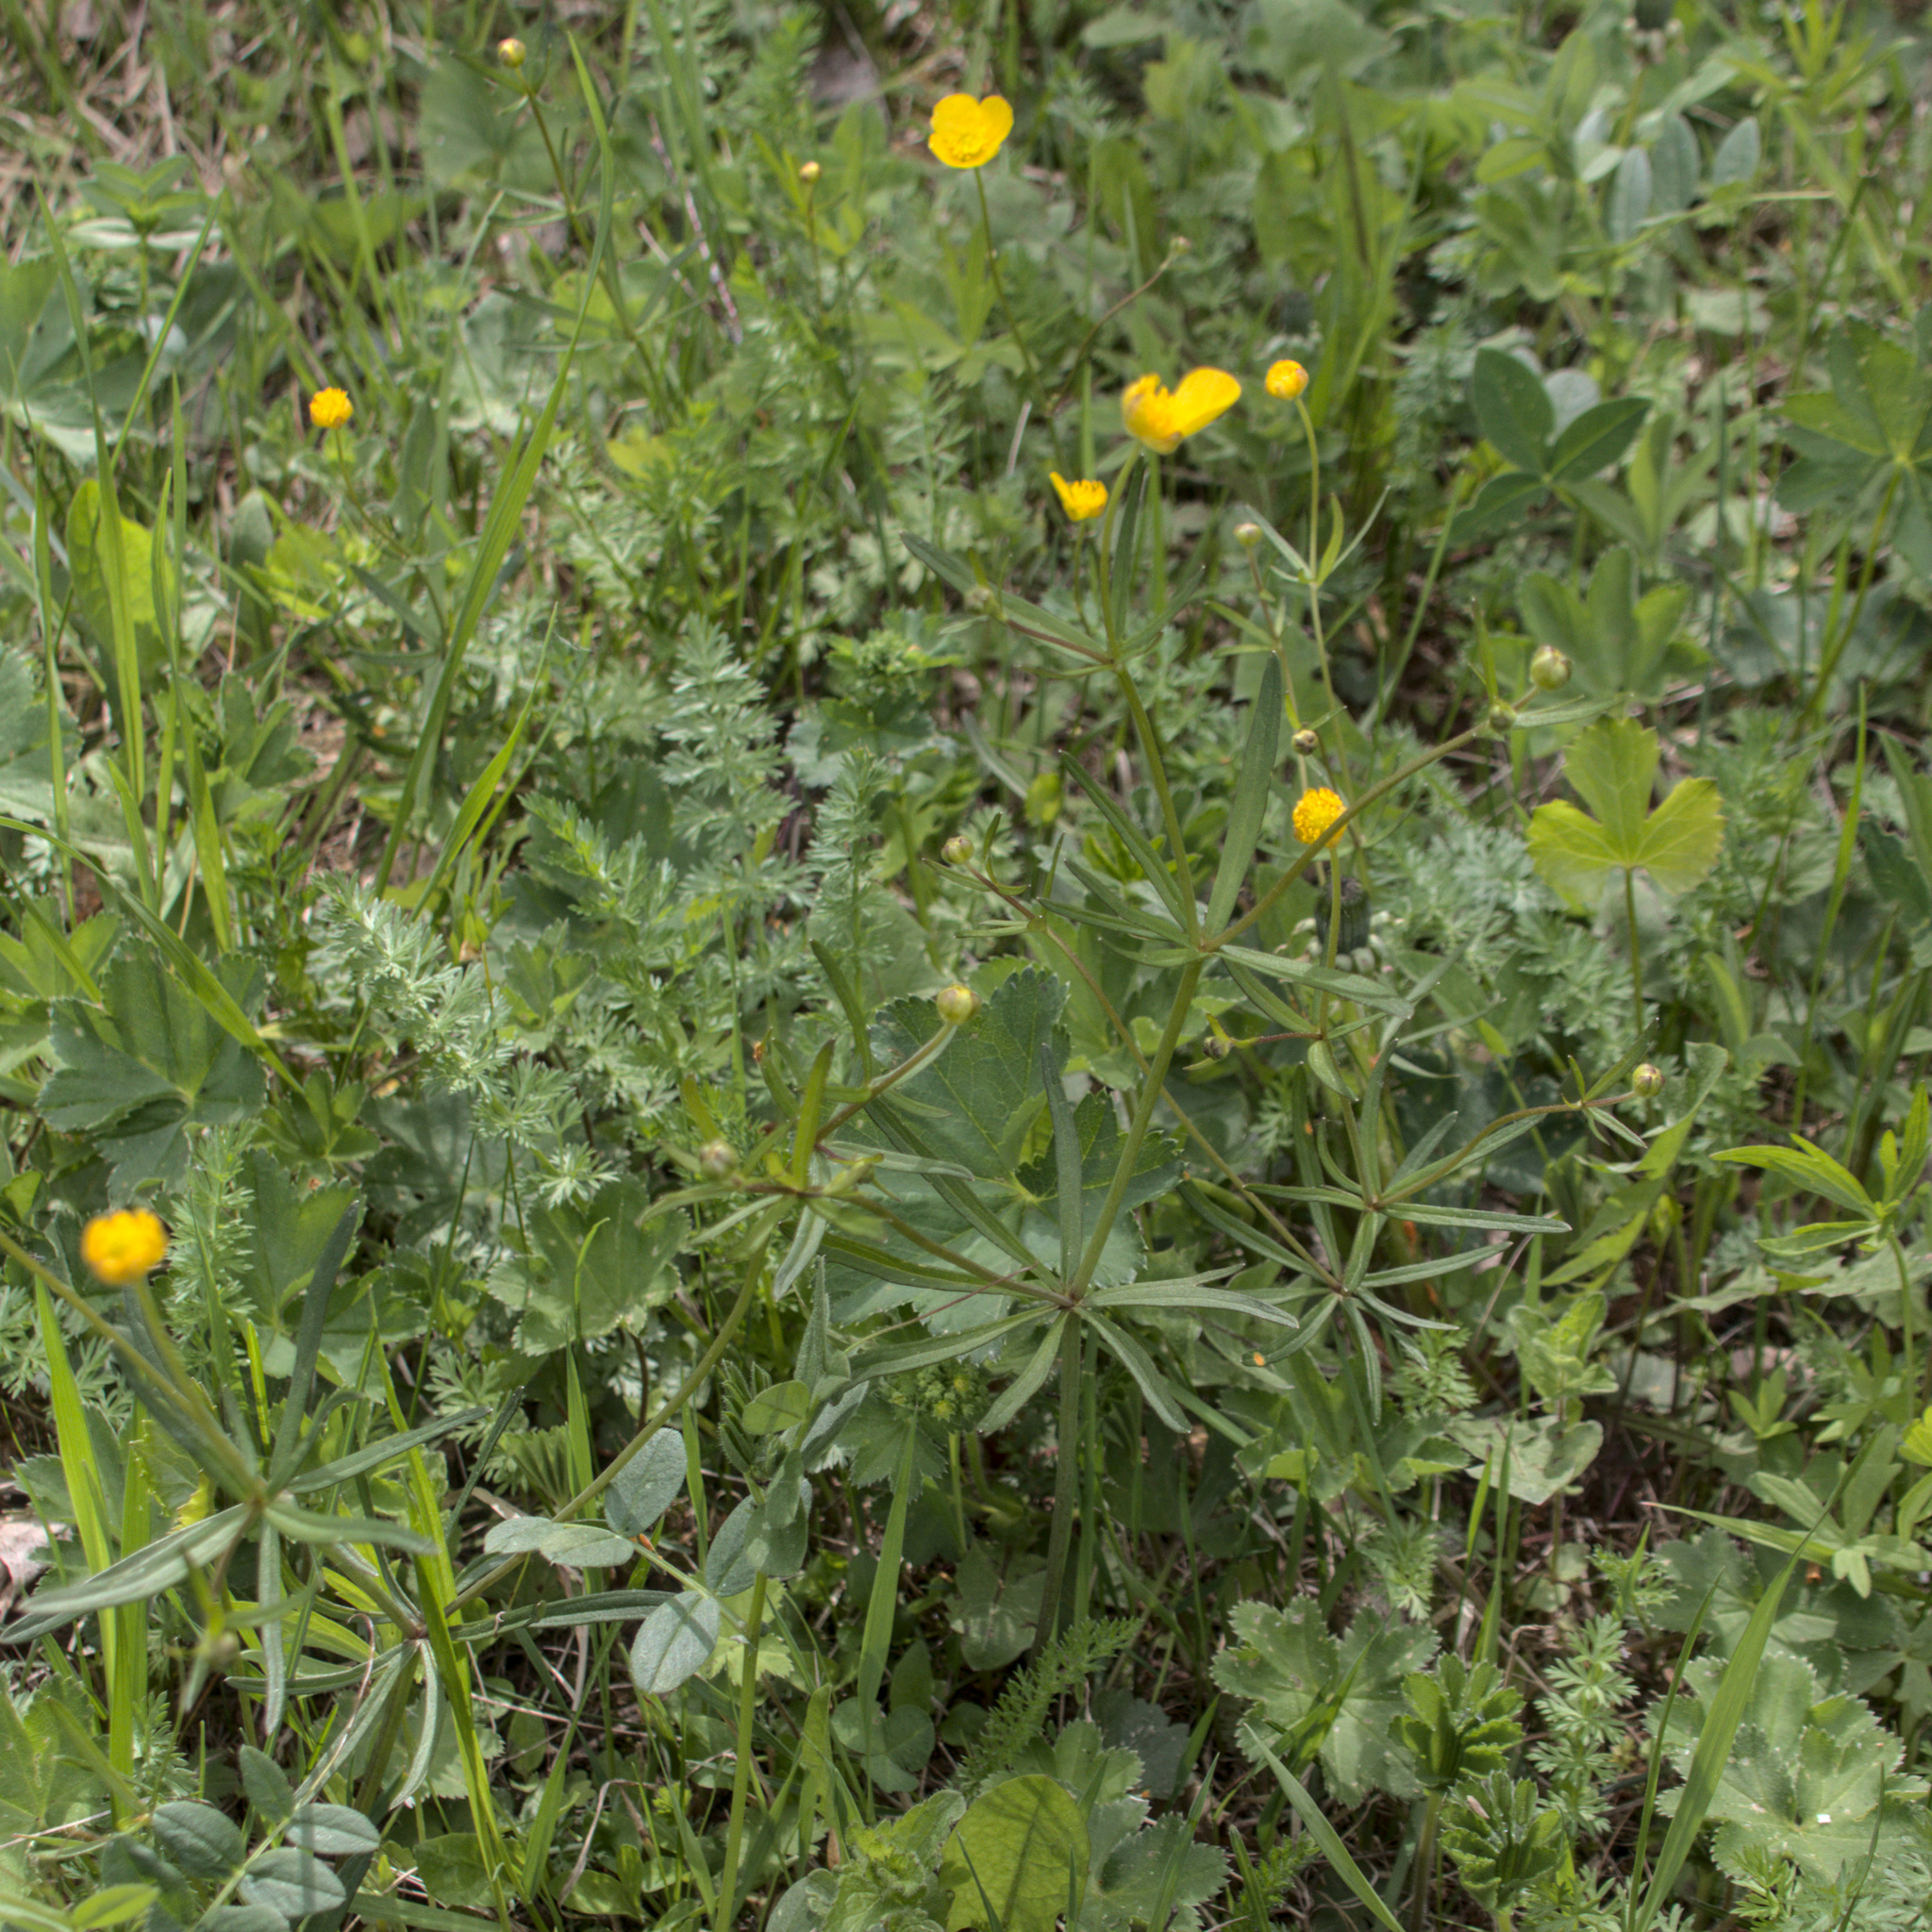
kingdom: Plantae
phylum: Tracheophyta
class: Magnoliopsida
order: Ranunculales
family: Ranunculaceae
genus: Ranunculus
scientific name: Ranunculus auricomus
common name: Goldilocks buttercup
